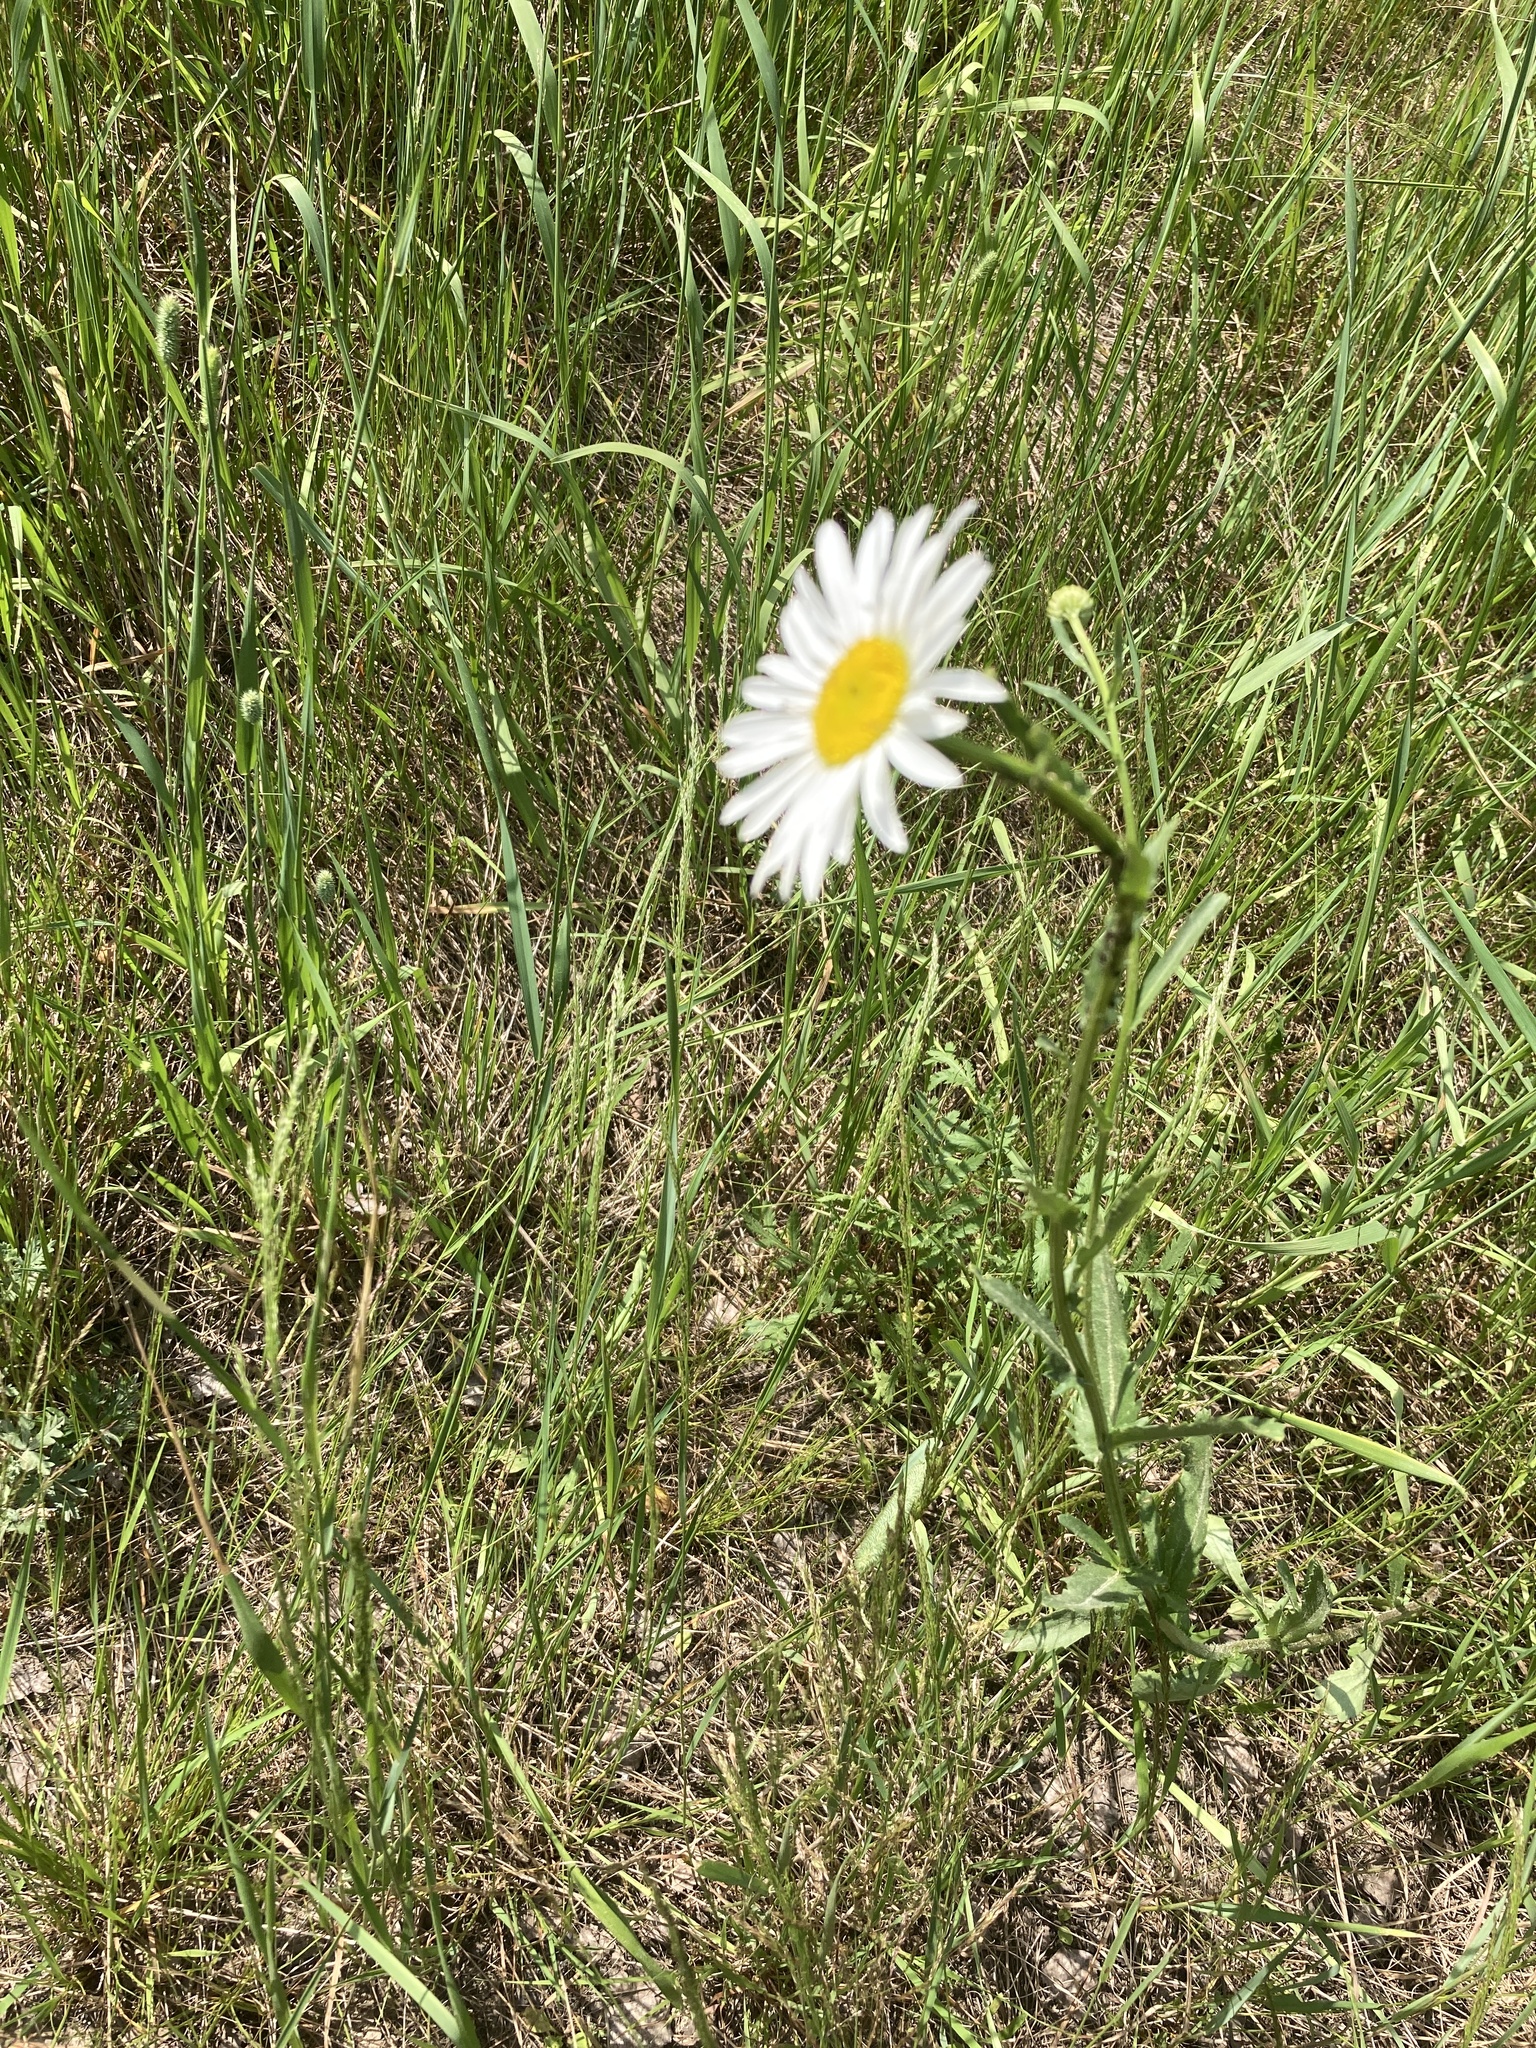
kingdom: Plantae
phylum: Tracheophyta
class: Magnoliopsida
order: Asterales
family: Asteraceae
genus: Leucanthemum
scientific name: Leucanthemum vulgare
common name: Oxeye daisy
